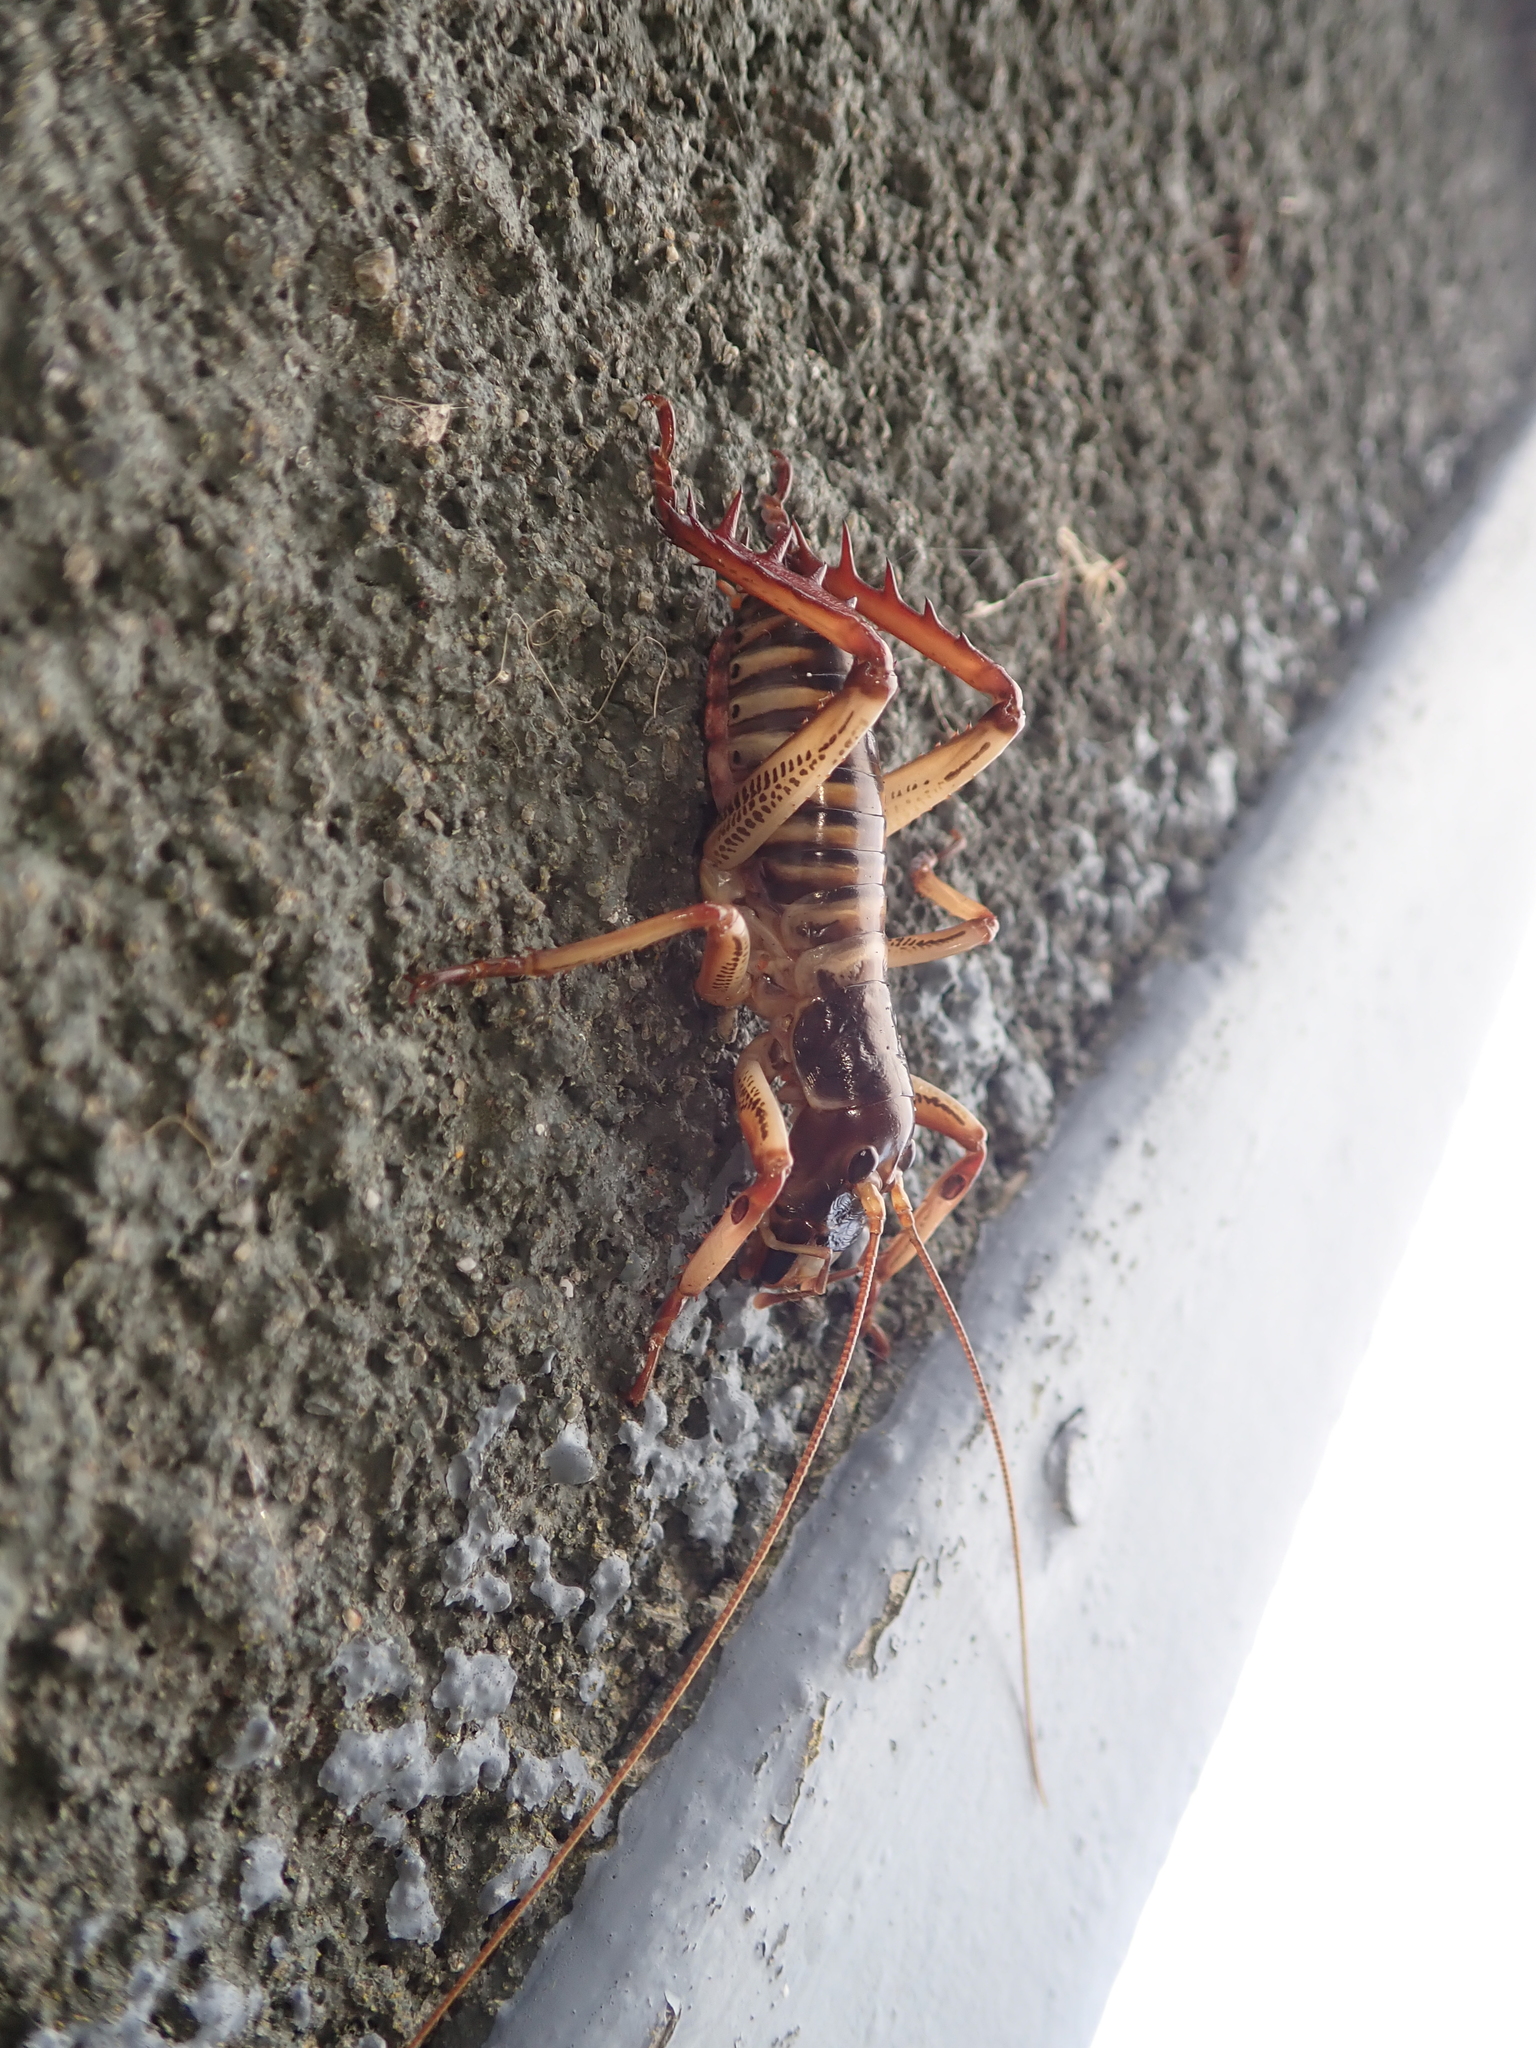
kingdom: Animalia
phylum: Arthropoda
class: Insecta
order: Orthoptera
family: Anostostomatidae
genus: Hemideina
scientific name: Hemideina crassidens
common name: Wellington tree weta
